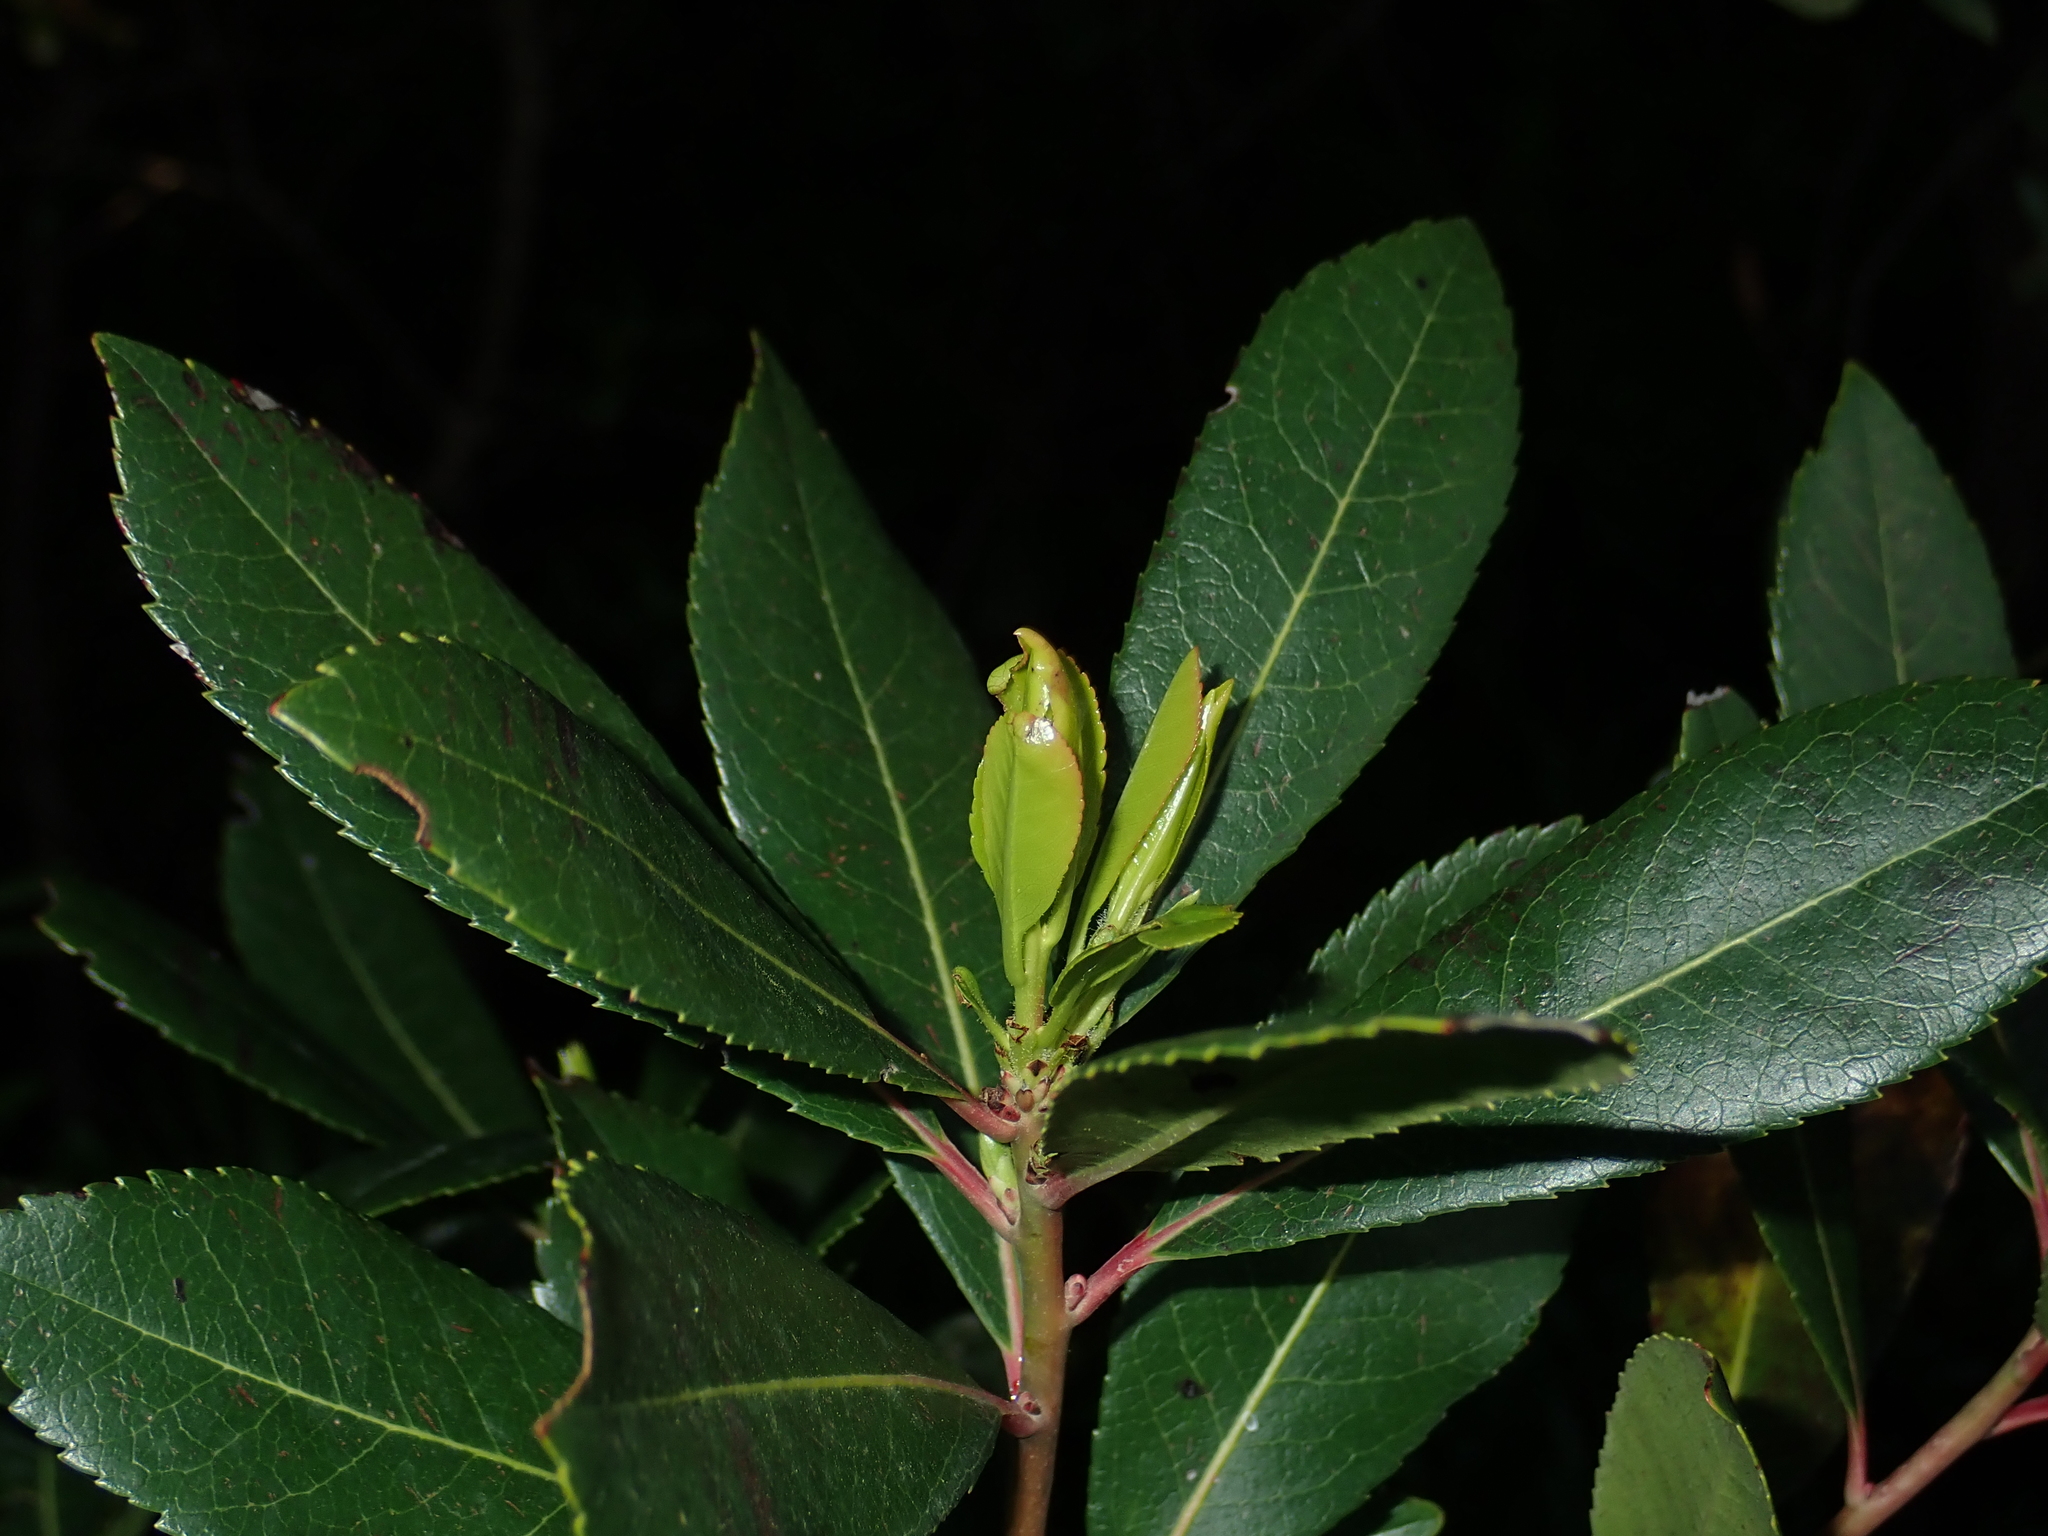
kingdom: Plantae
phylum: Tracheophyta
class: Magnoliopsida
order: Ericales
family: Ericaceae
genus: Arbutus
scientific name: Arbutus unedo
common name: Strawberry-tree
